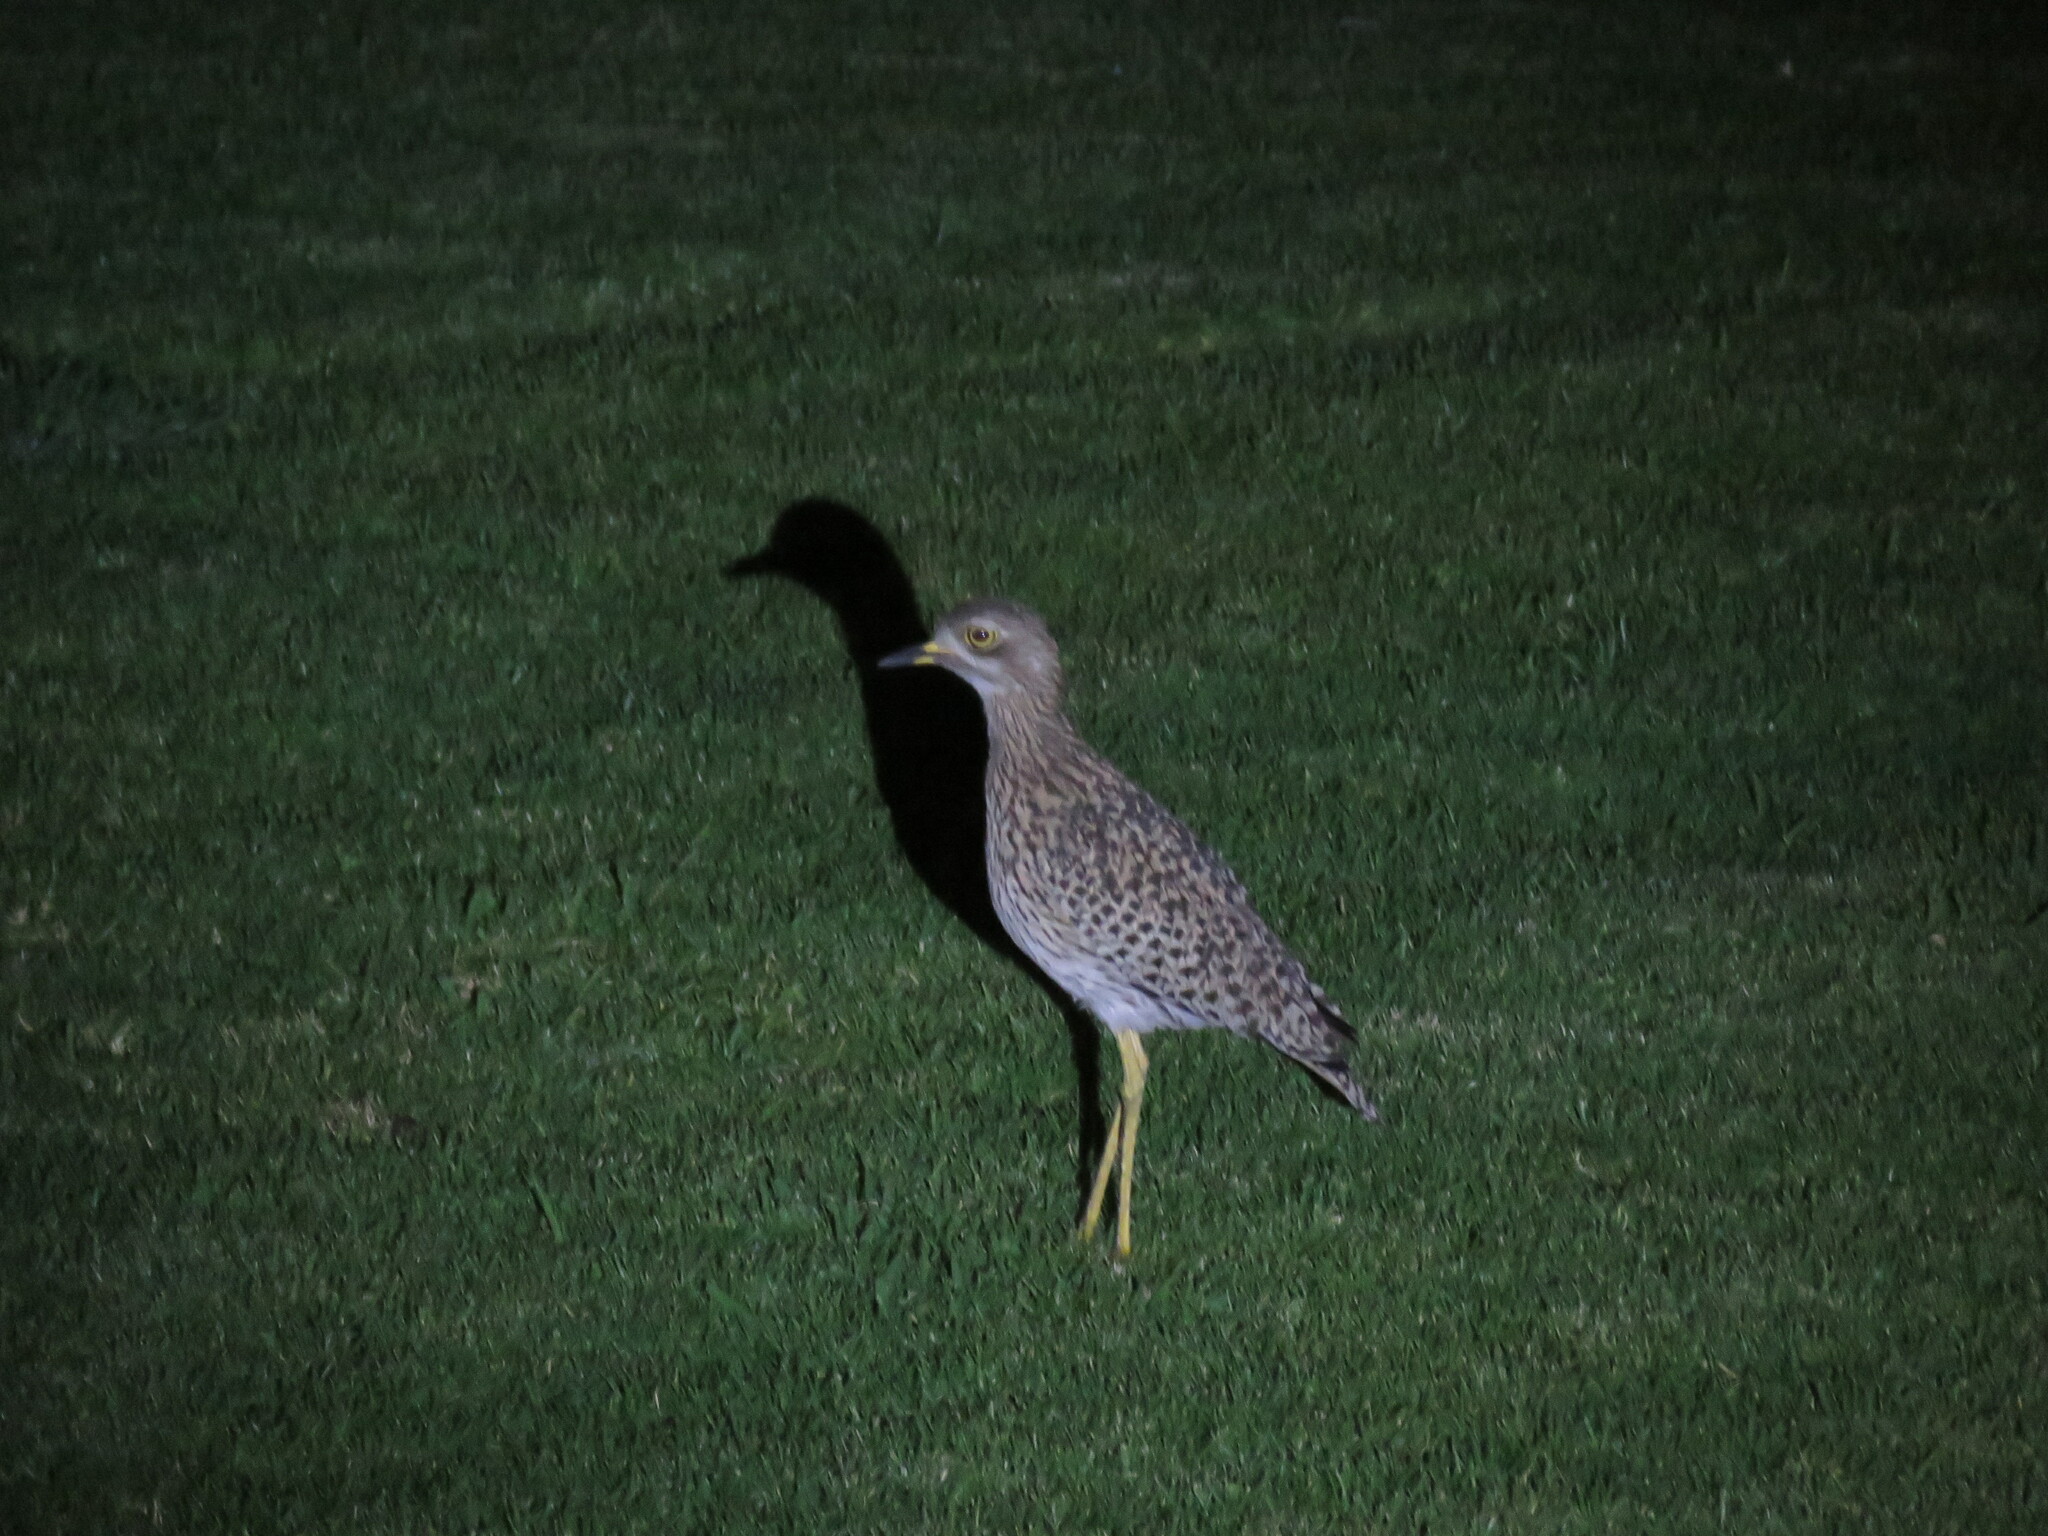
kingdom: Animalia
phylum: Chordata
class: Aves
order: Charadriiformes
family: Burhinidae
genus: Burhinus
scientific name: Burhinus capensis
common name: Spotted thick-knee
